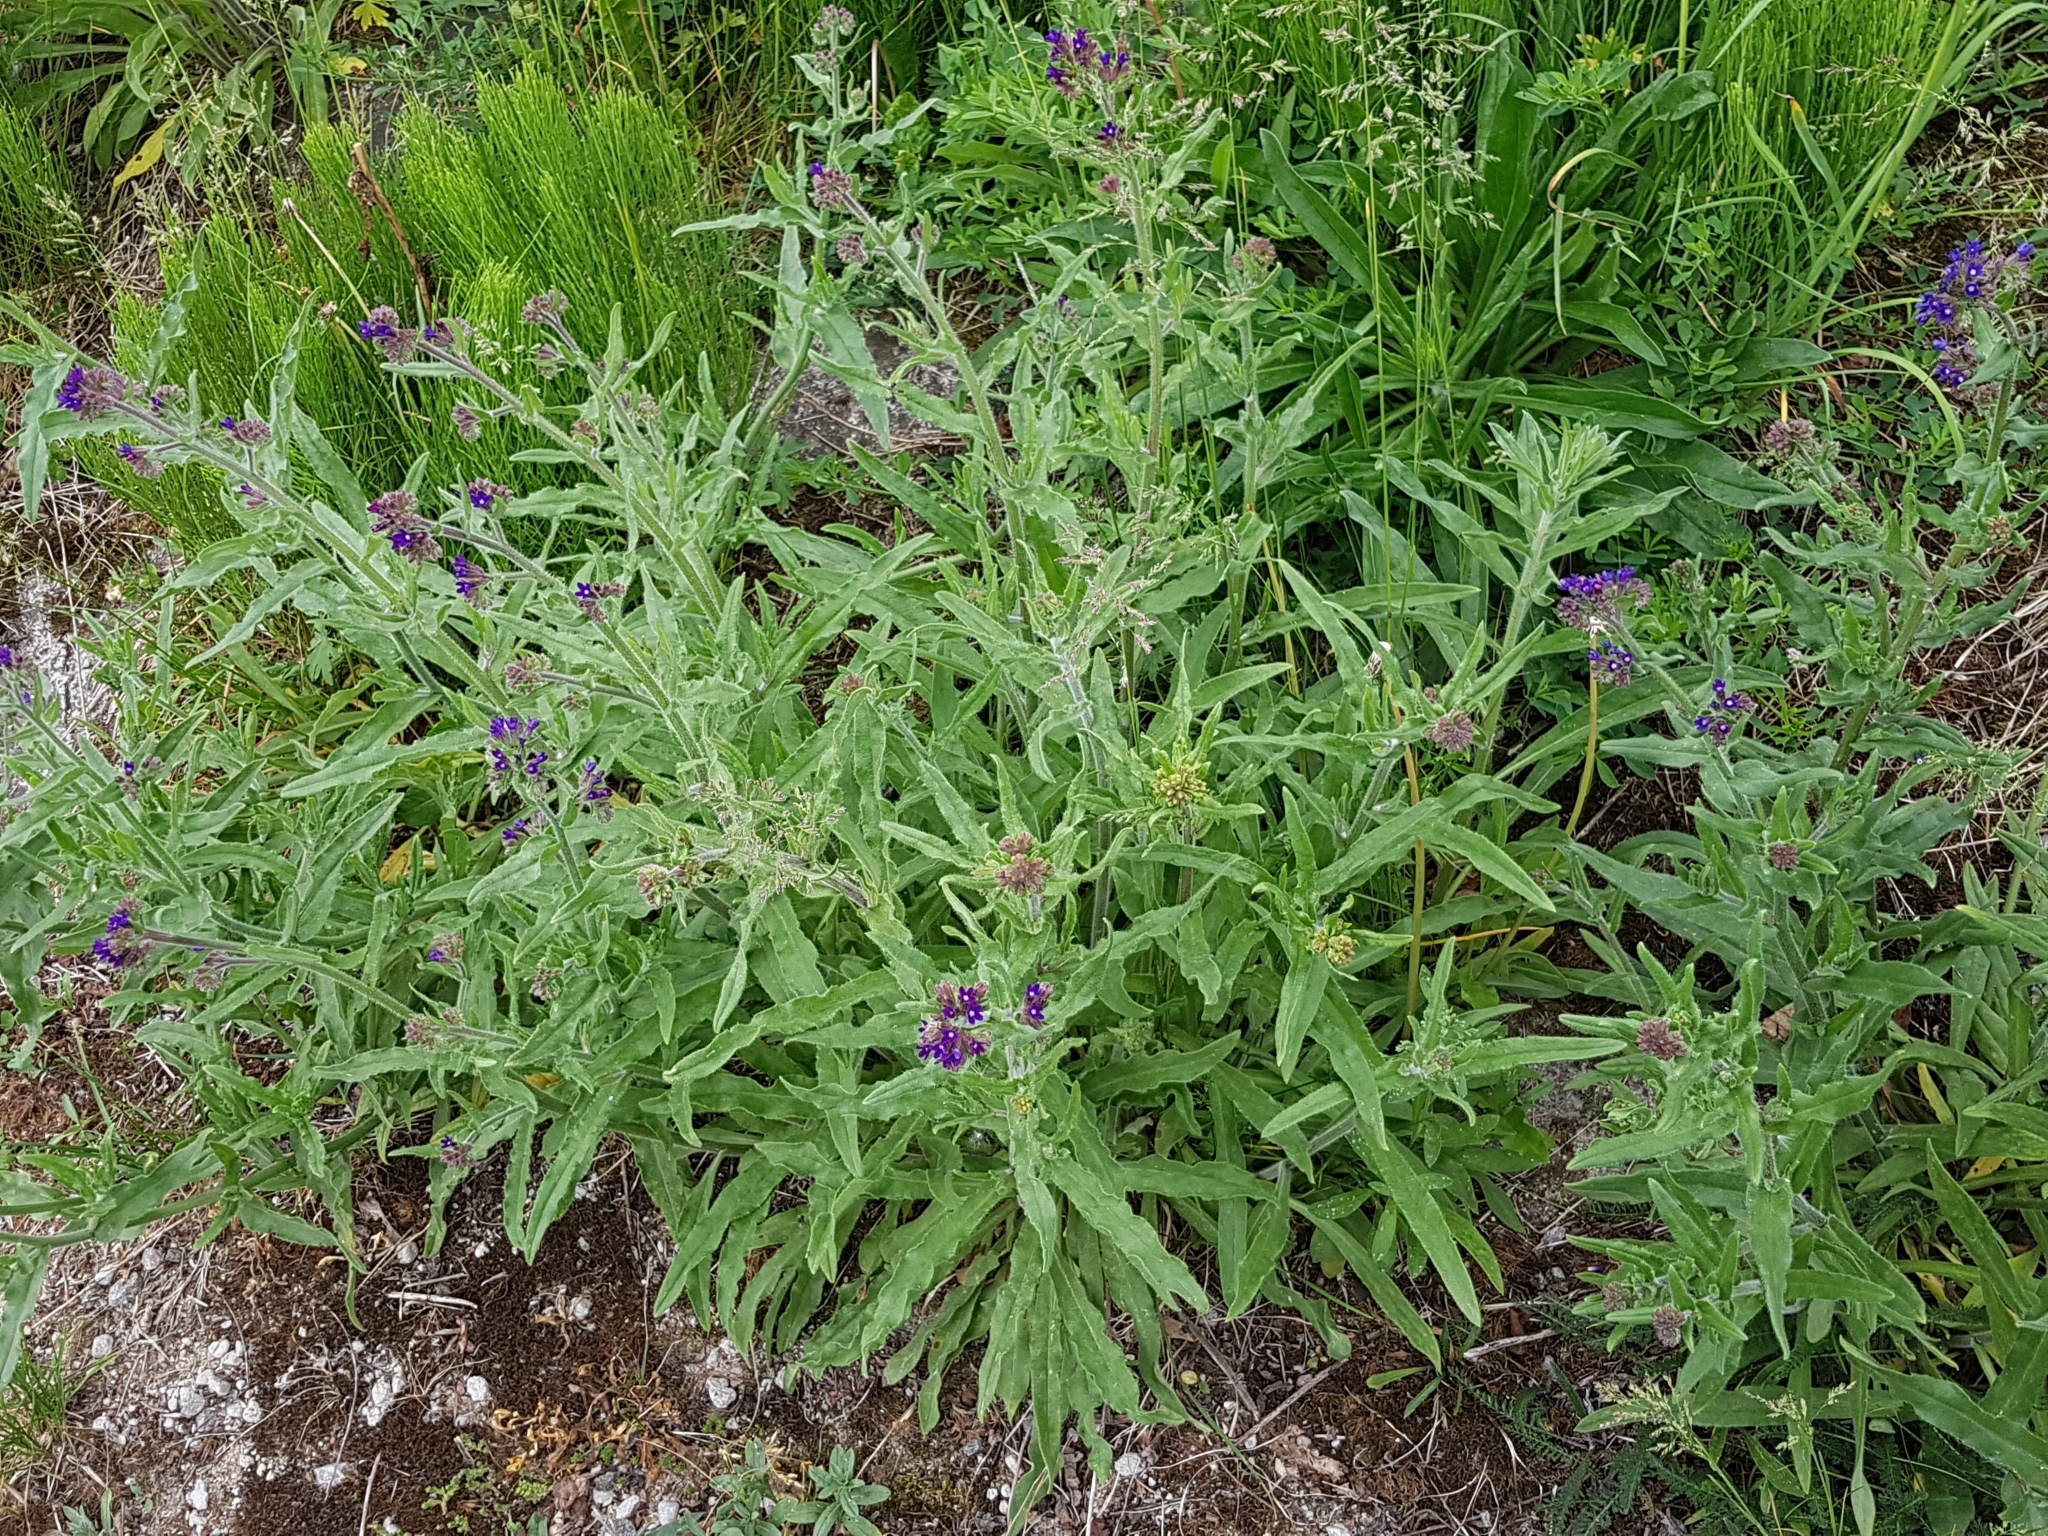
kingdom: Plantae
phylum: Tracheophyta
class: Magnoliopsida
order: Boraginales
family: Boraginaceae
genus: Anchusa
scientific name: Anchusa officinalis
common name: Alkanet
